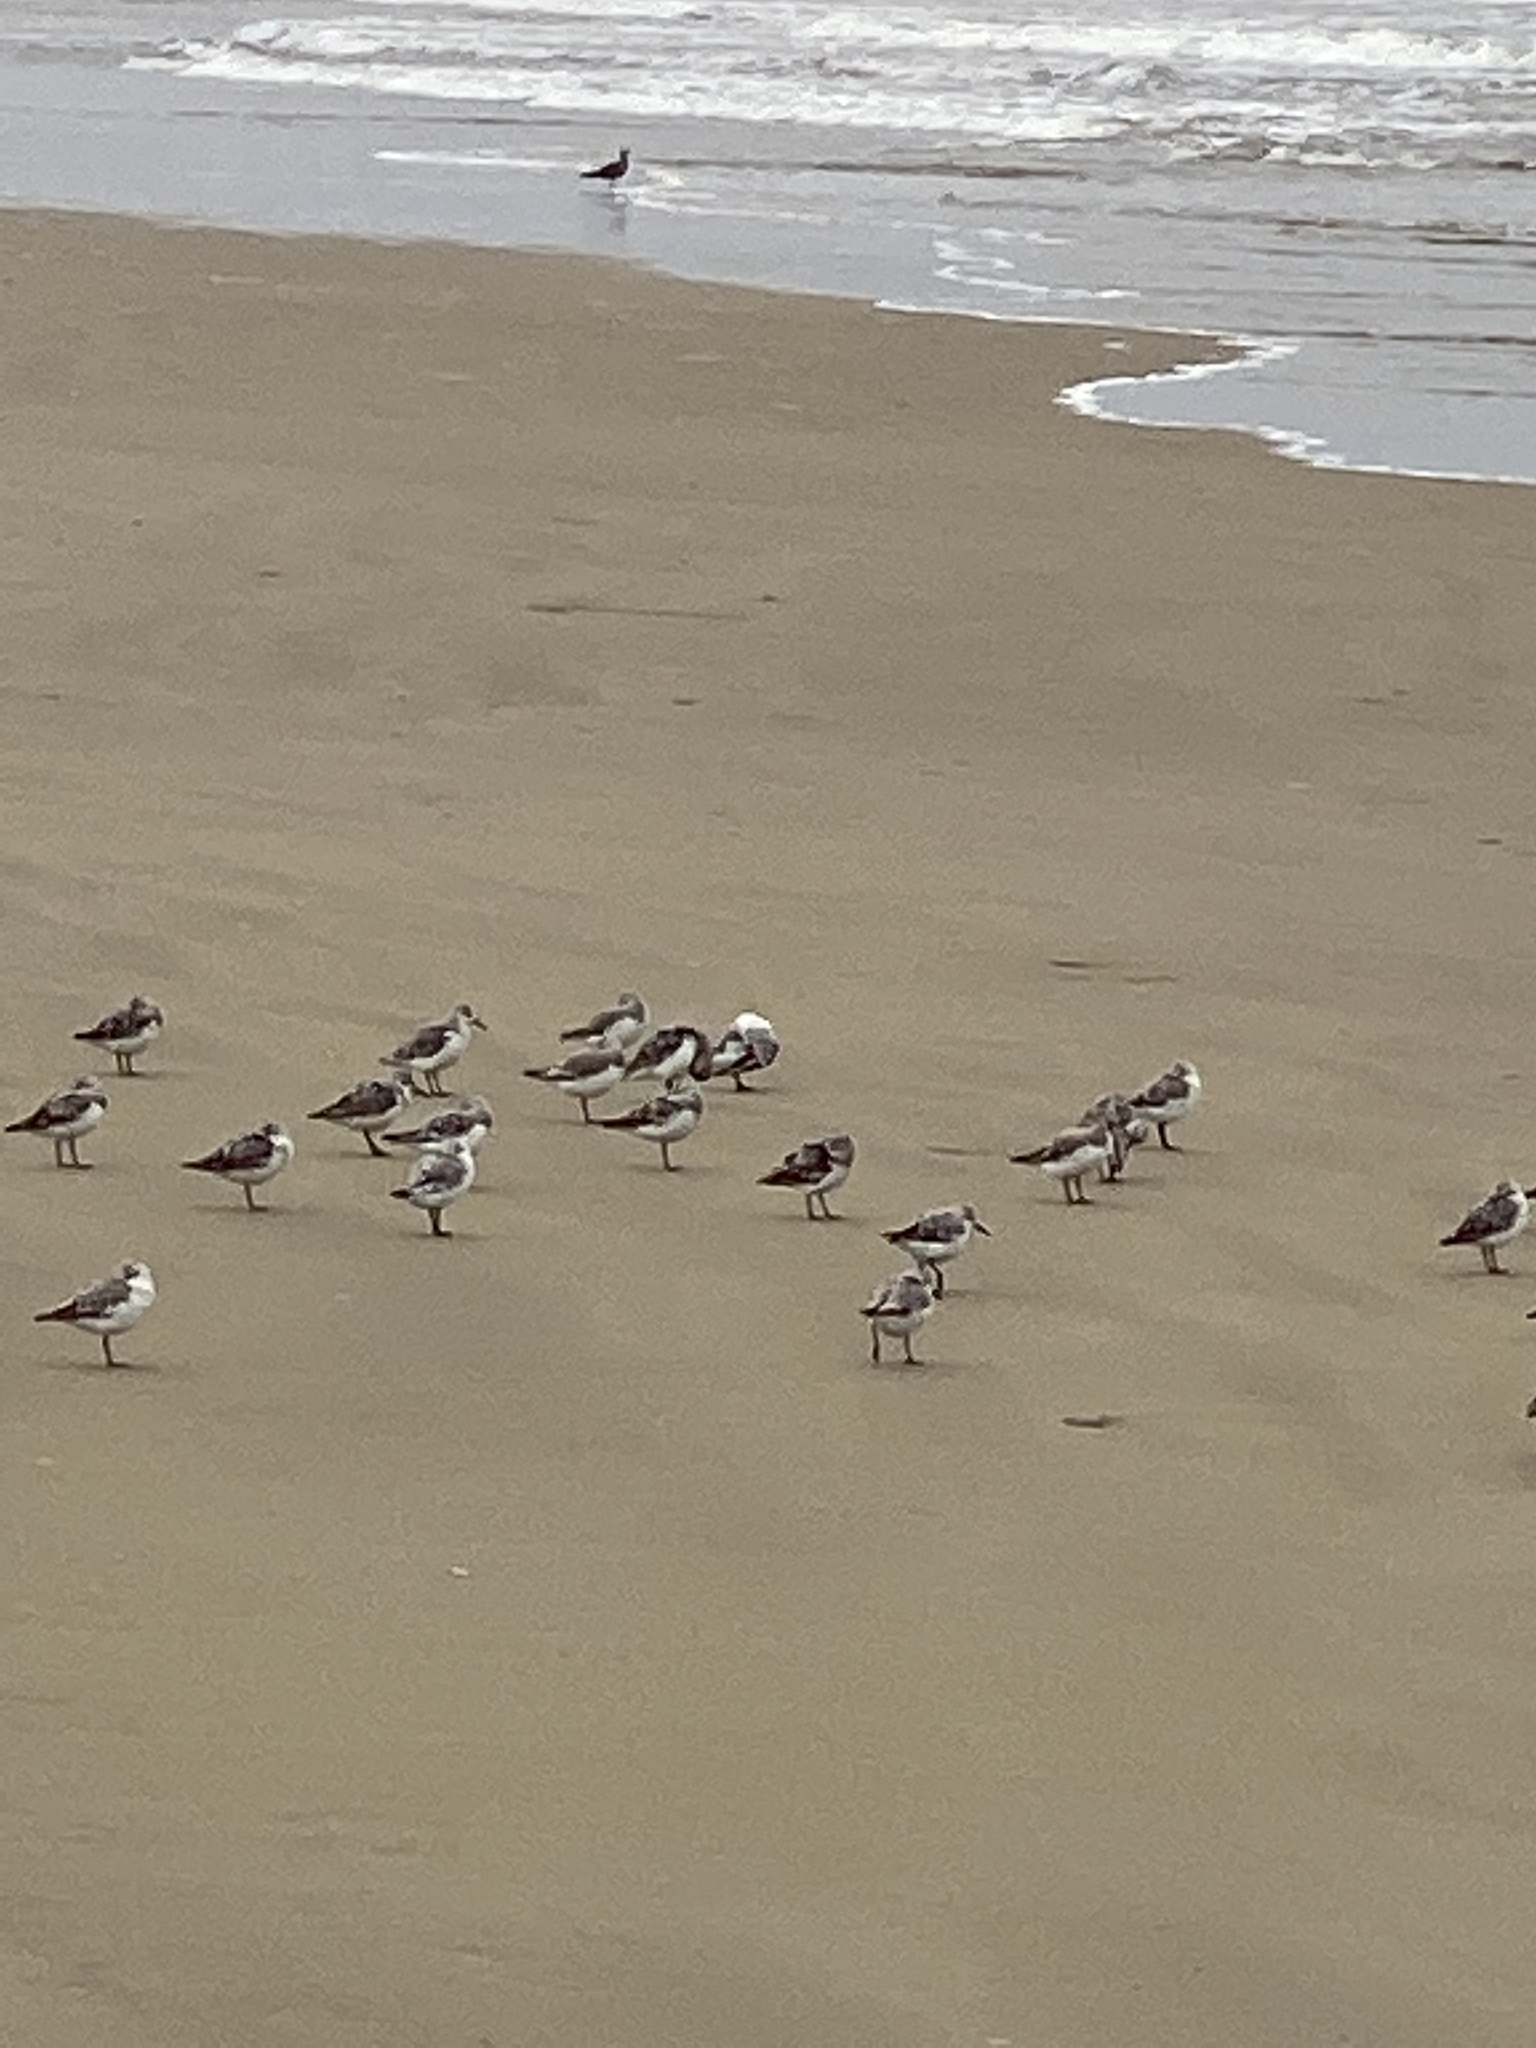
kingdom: Animalia
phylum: Chordata
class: Aves
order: Charadriiformes
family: Scolopacidae
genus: Calidris
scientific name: Calidris alba
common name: Sanderling
